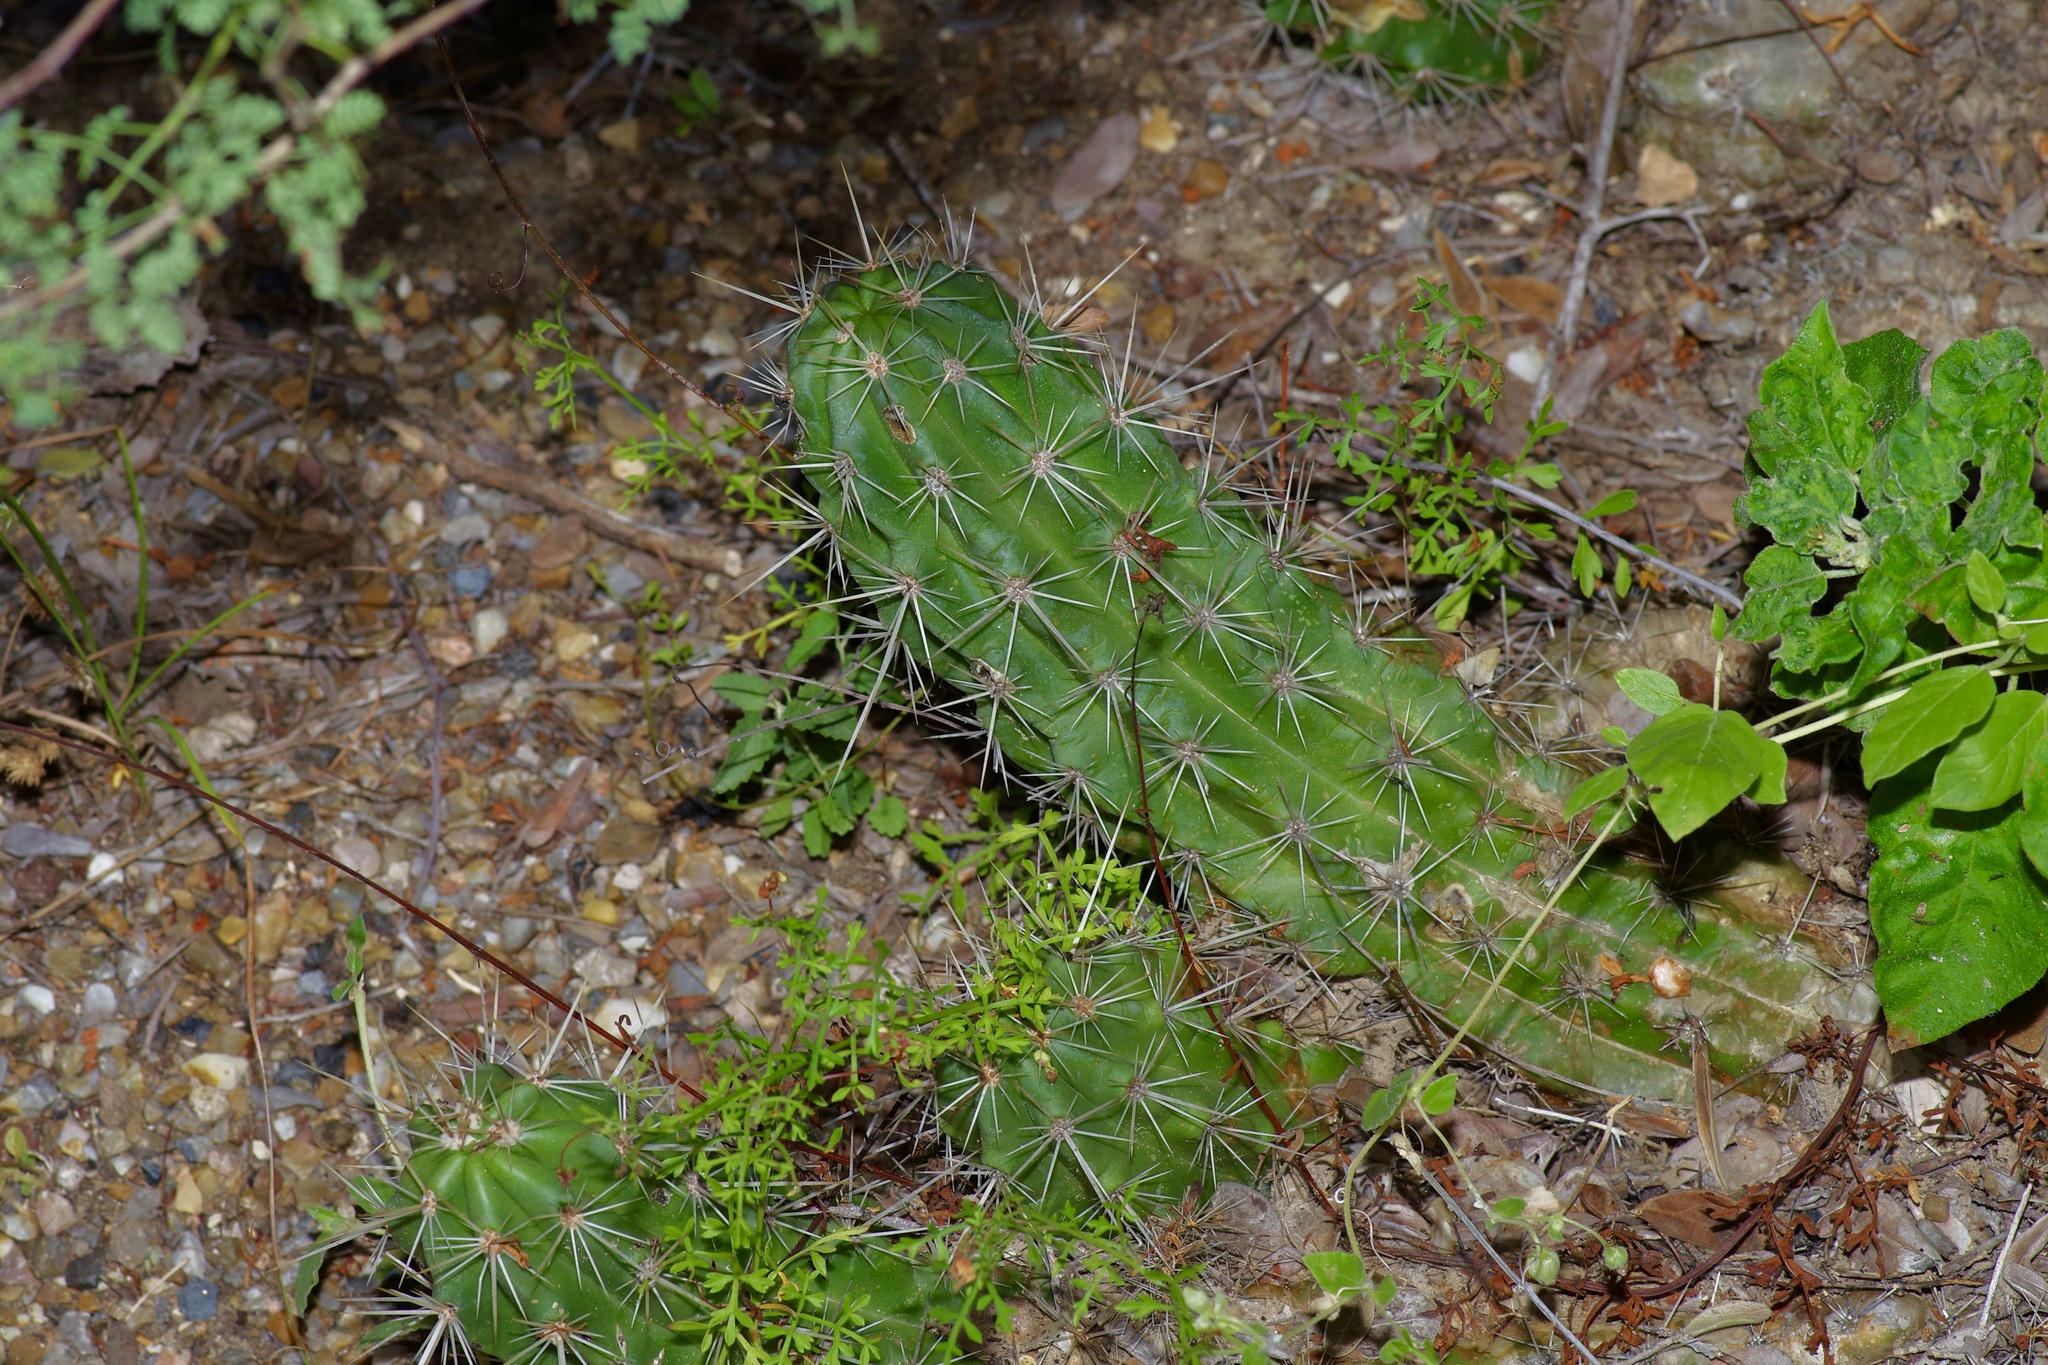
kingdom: Plantae
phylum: Tracheophyta
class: Magnoliopsida
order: Caryophyllales
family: Cactaceae
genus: Echinocereus
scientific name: Echinocereus enneacanthus
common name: Pitaya
